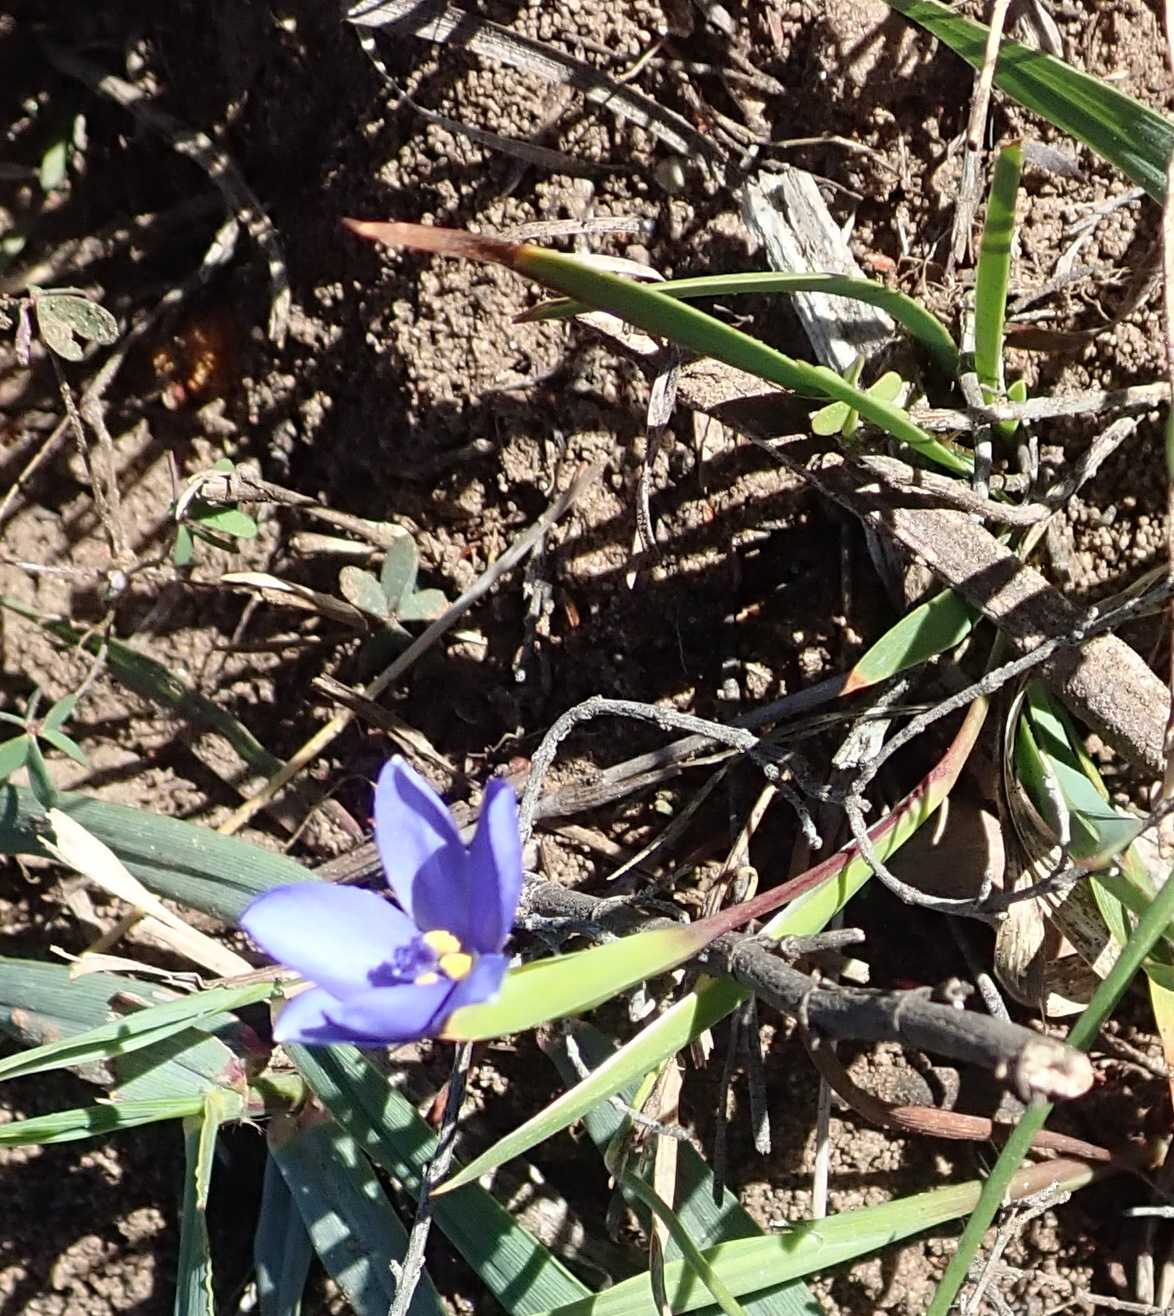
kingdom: Plantae
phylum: Tracheophyta
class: Liliopsida
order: Asparagales
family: Iridaceae
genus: Aristea
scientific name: Aristea pusilla
